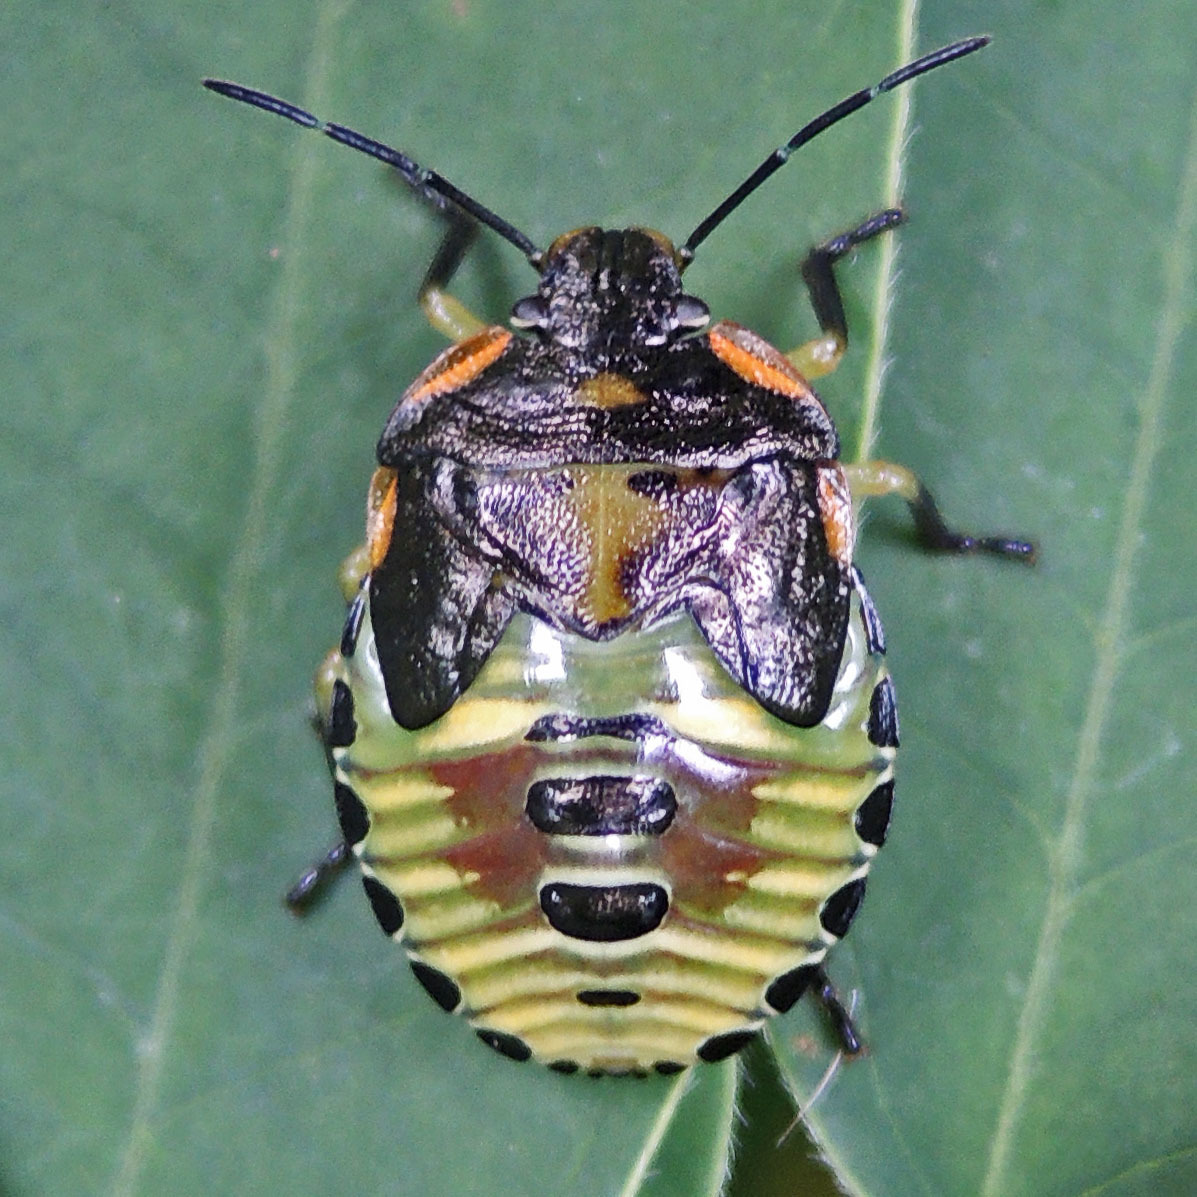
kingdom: Animalia
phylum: Arthropoda
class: Insecta
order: Hemiptera
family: Pentatomidae
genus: Chinavia
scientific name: Chinavia hilaris
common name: Green stink bug
